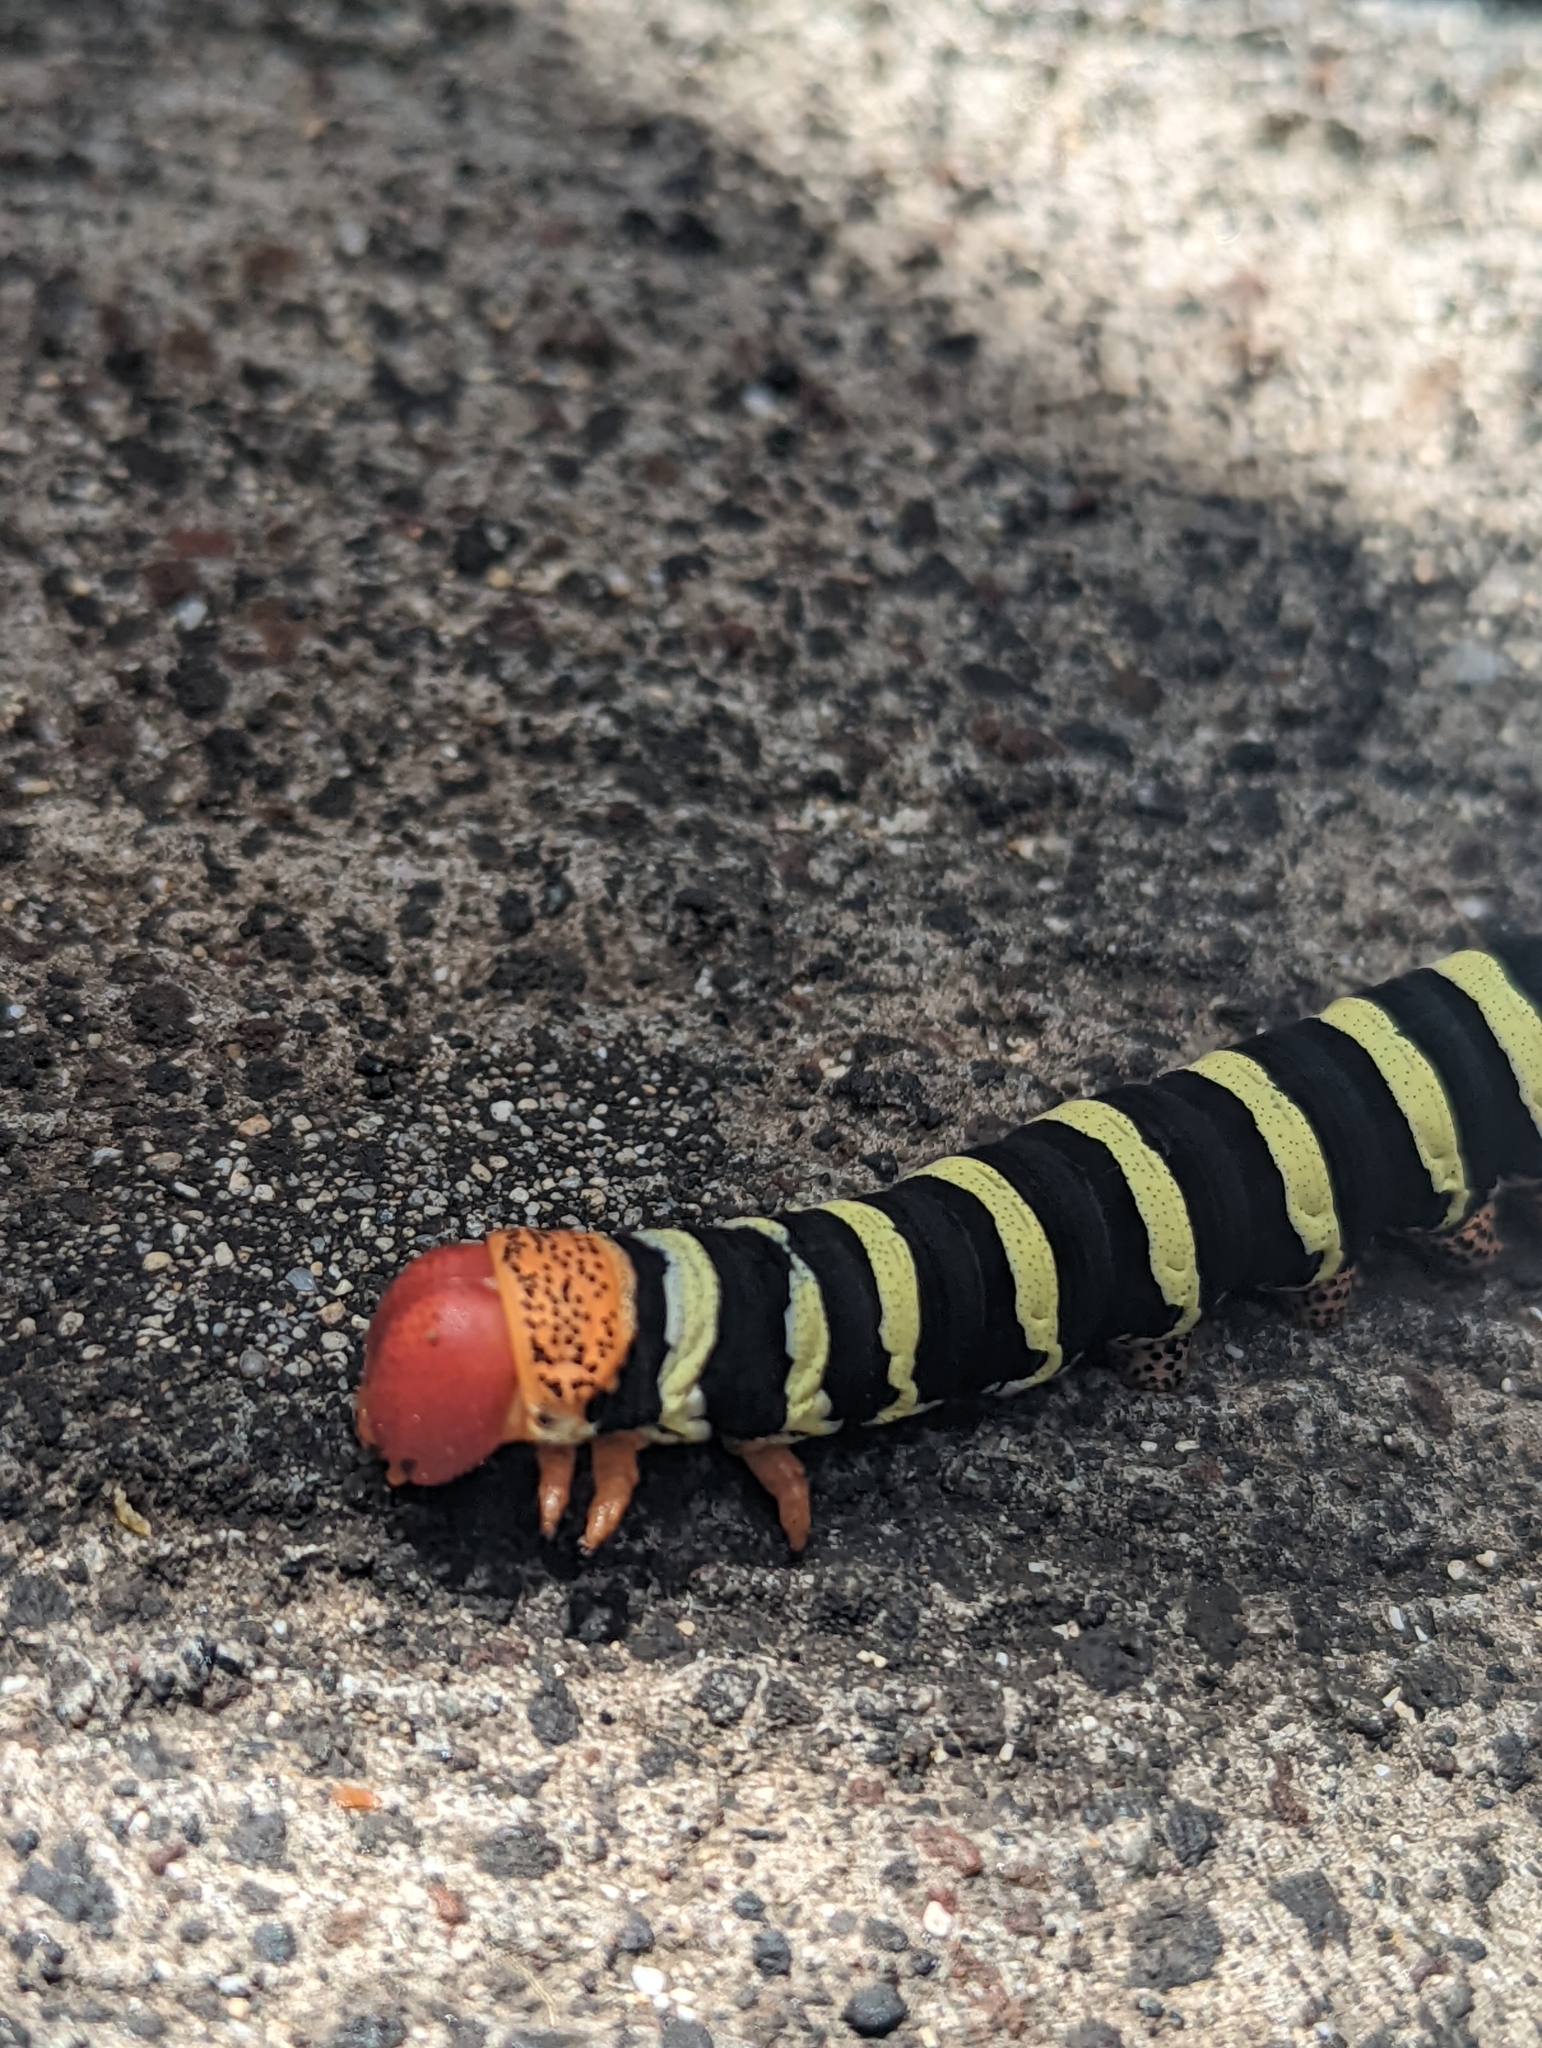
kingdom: Animalia
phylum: Arthropoda
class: Insecta
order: Lepidoptera
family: Sphingidae
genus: Pseudosphinx
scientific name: Pseudosphinx tetrio
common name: Tetrio sphinx
